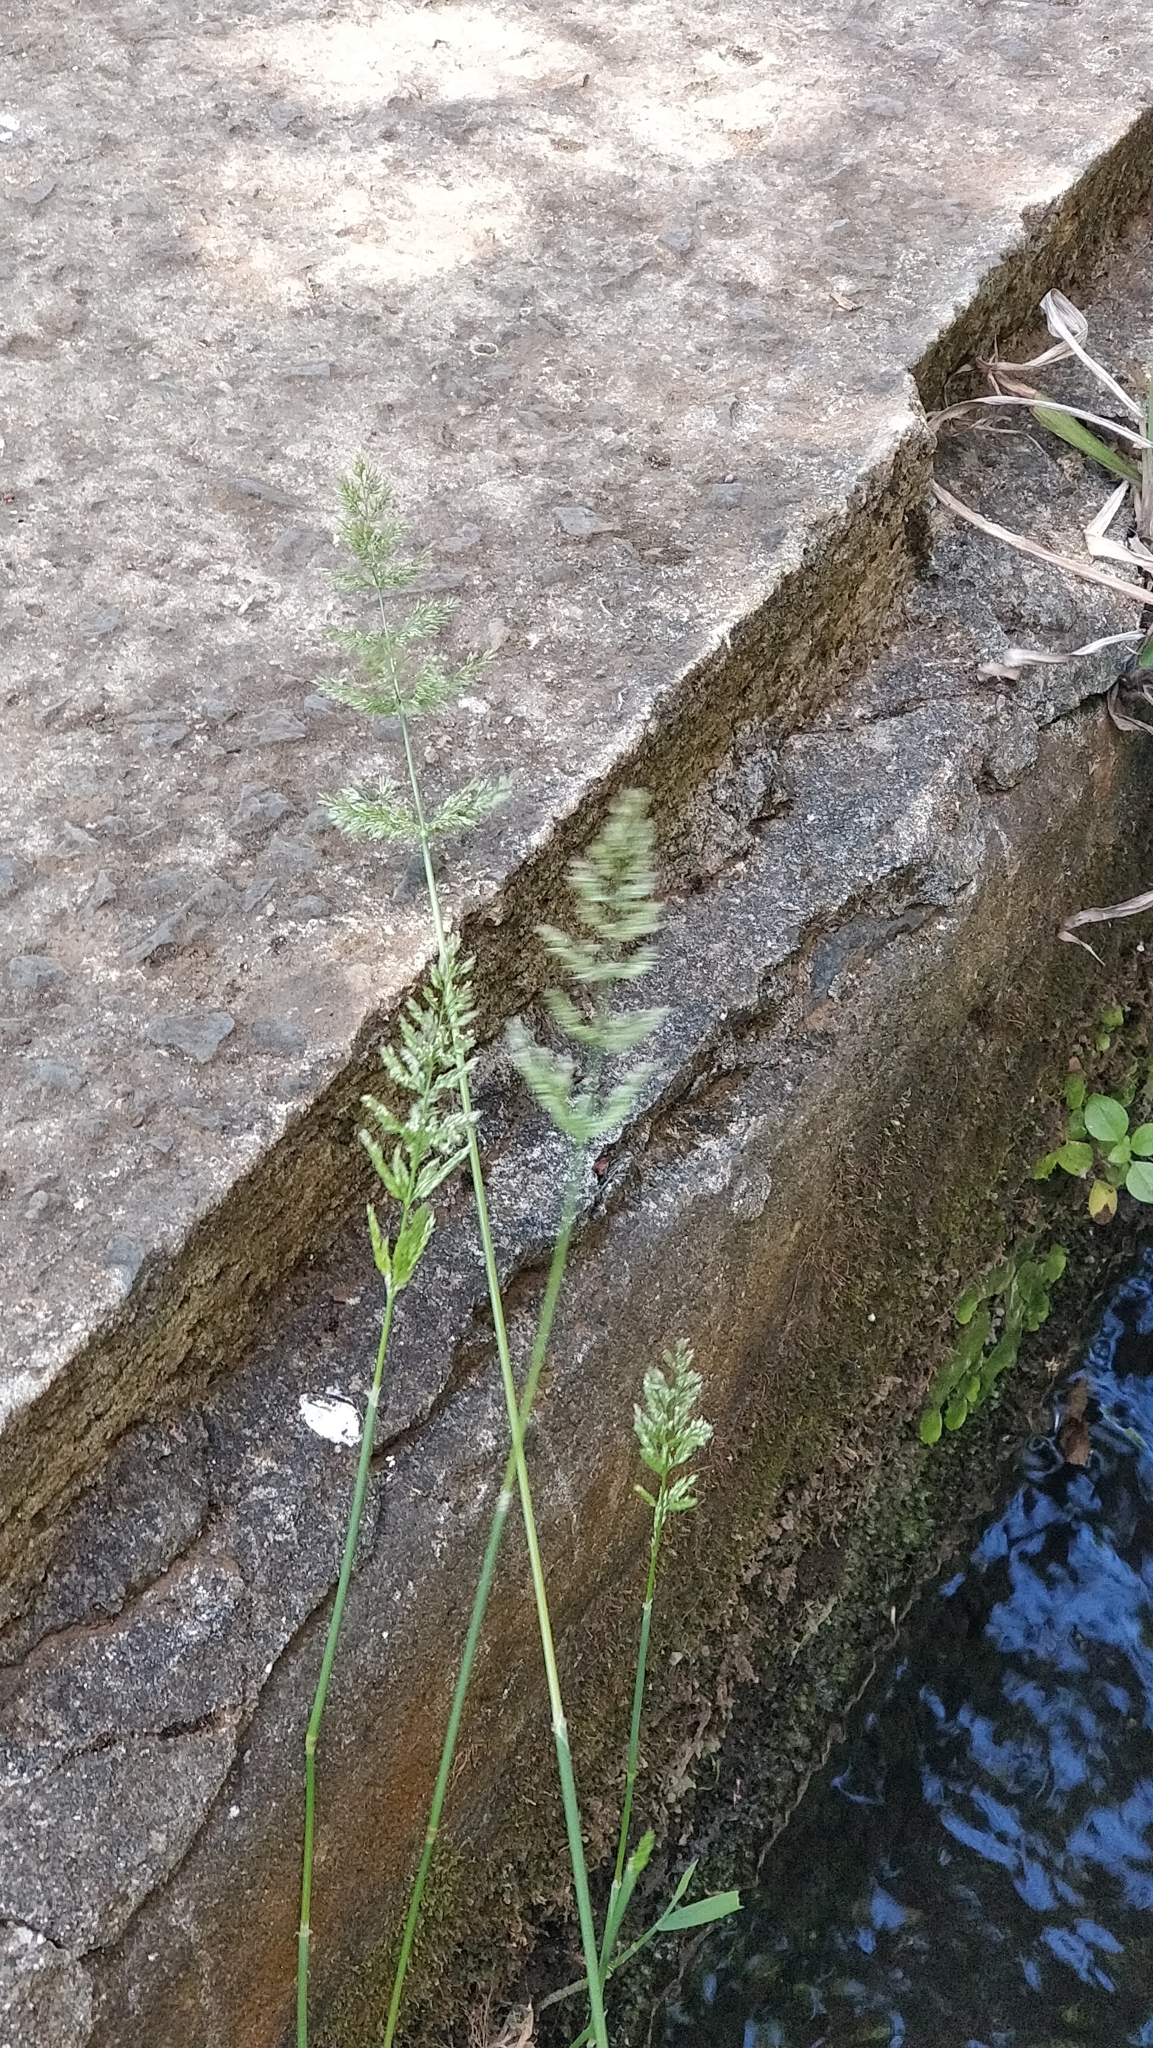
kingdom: Plantae
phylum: Tracheophyta
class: Liliopsida
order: Poales
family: Poaceae
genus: Polypogon
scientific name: Polypogon viridis
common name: Water bent
